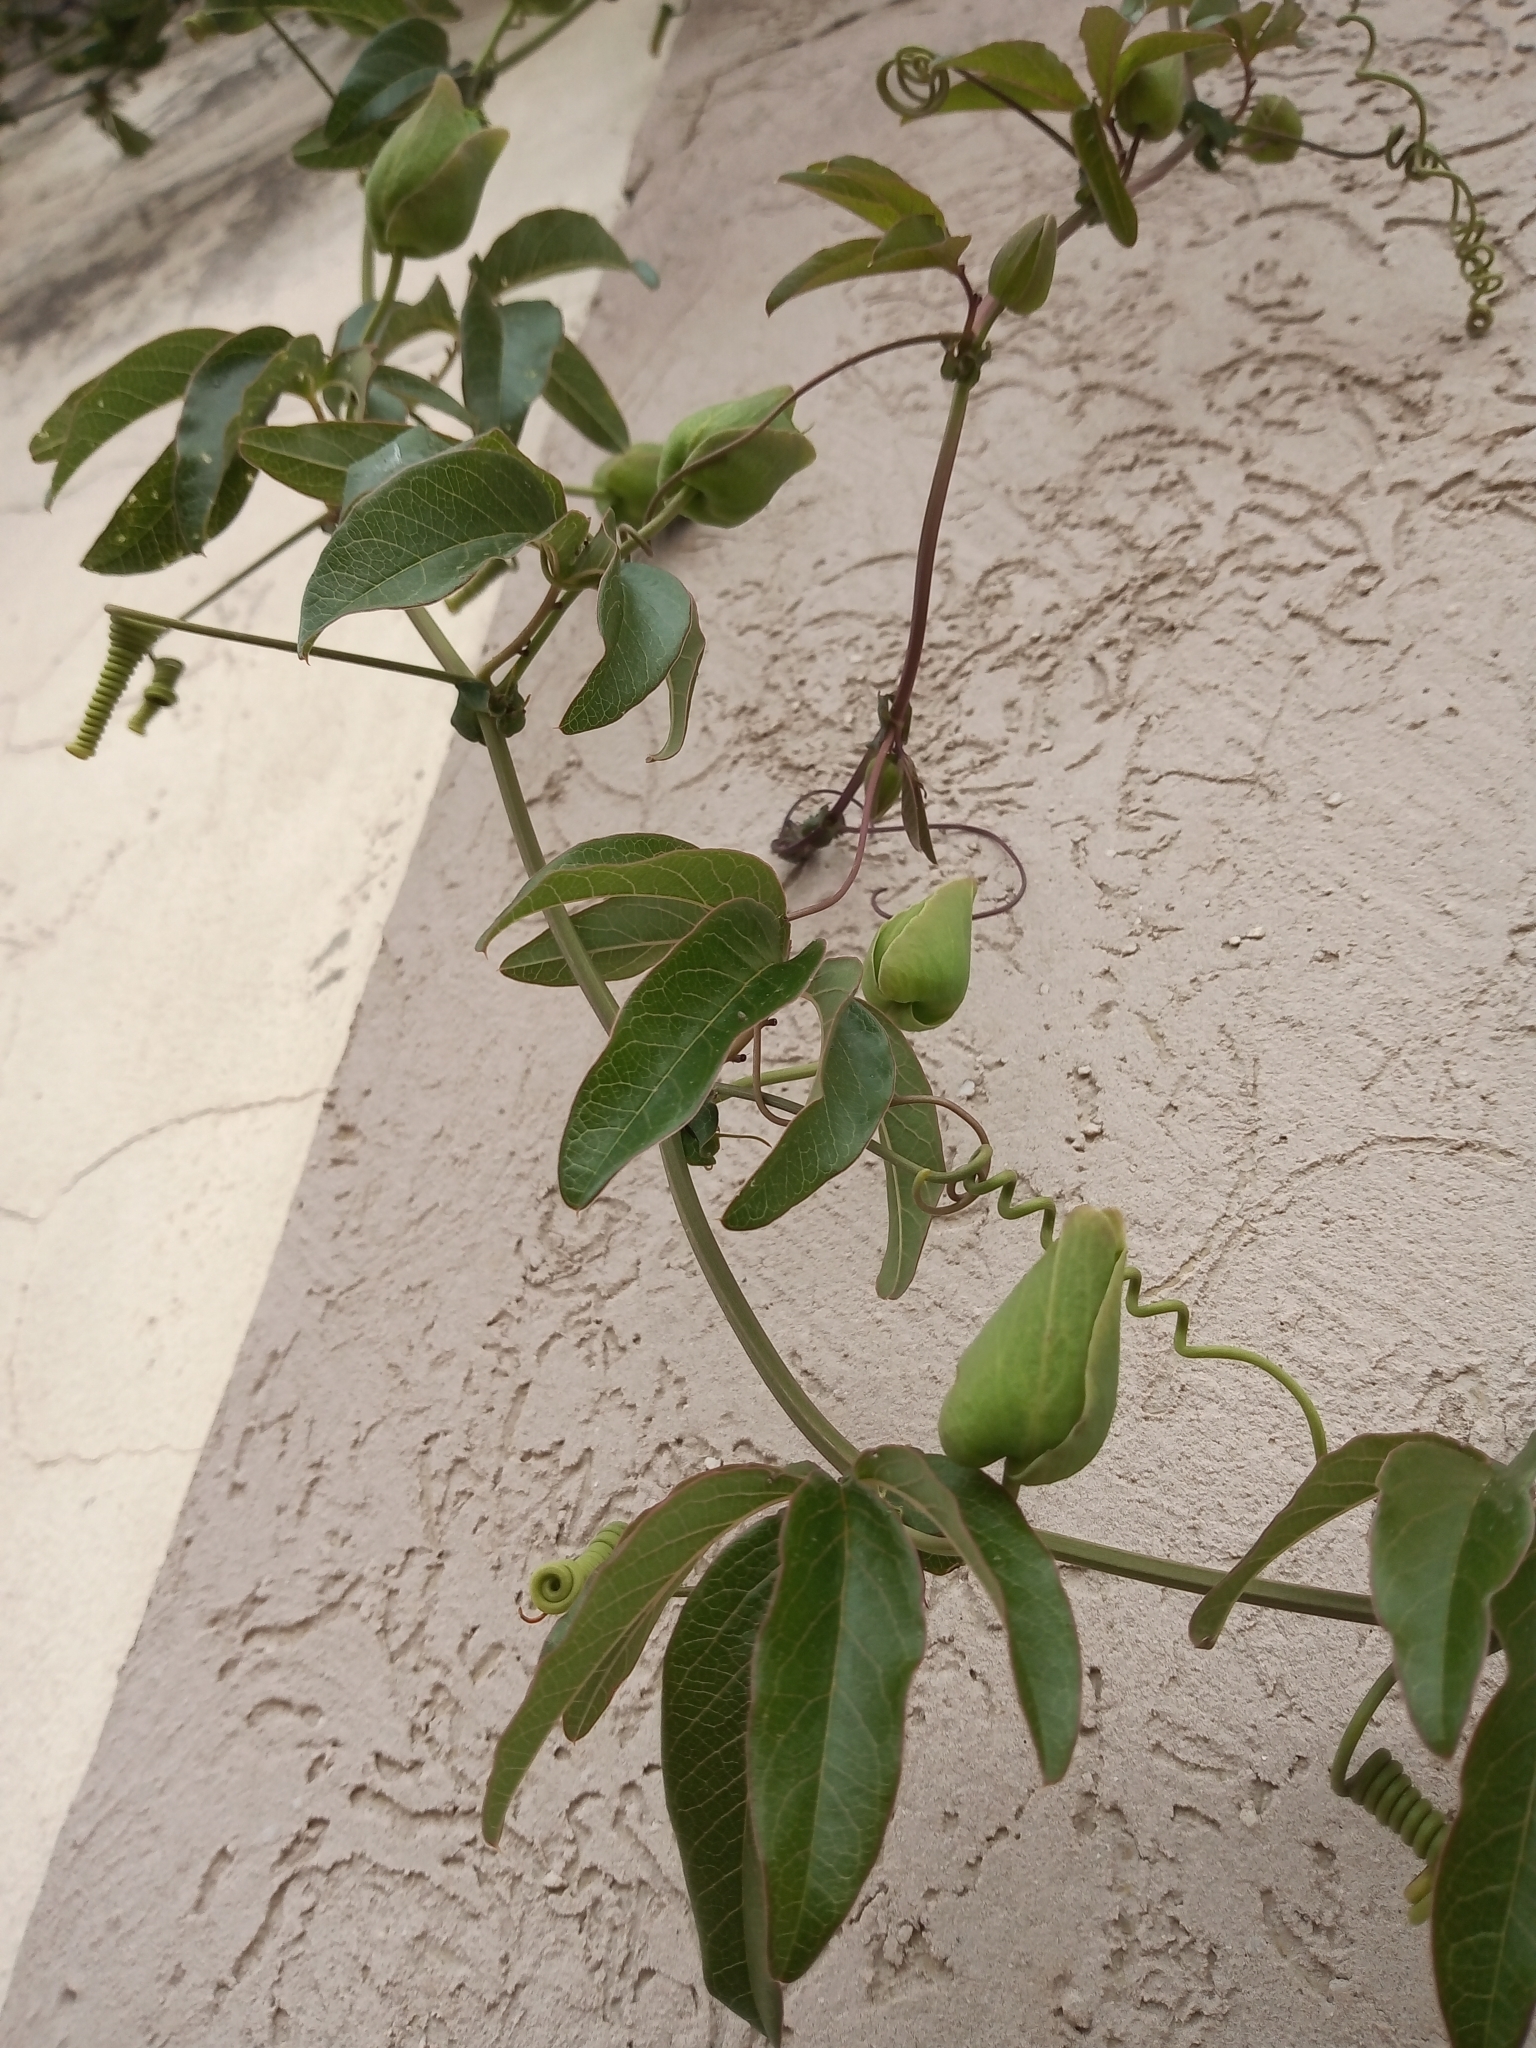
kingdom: Plantae
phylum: Tracheophyta
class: Magnoliopsida
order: Malpighiales
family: Passifloraceae
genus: Passiflora
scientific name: Passiflora caerulea
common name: Blue passionflower
